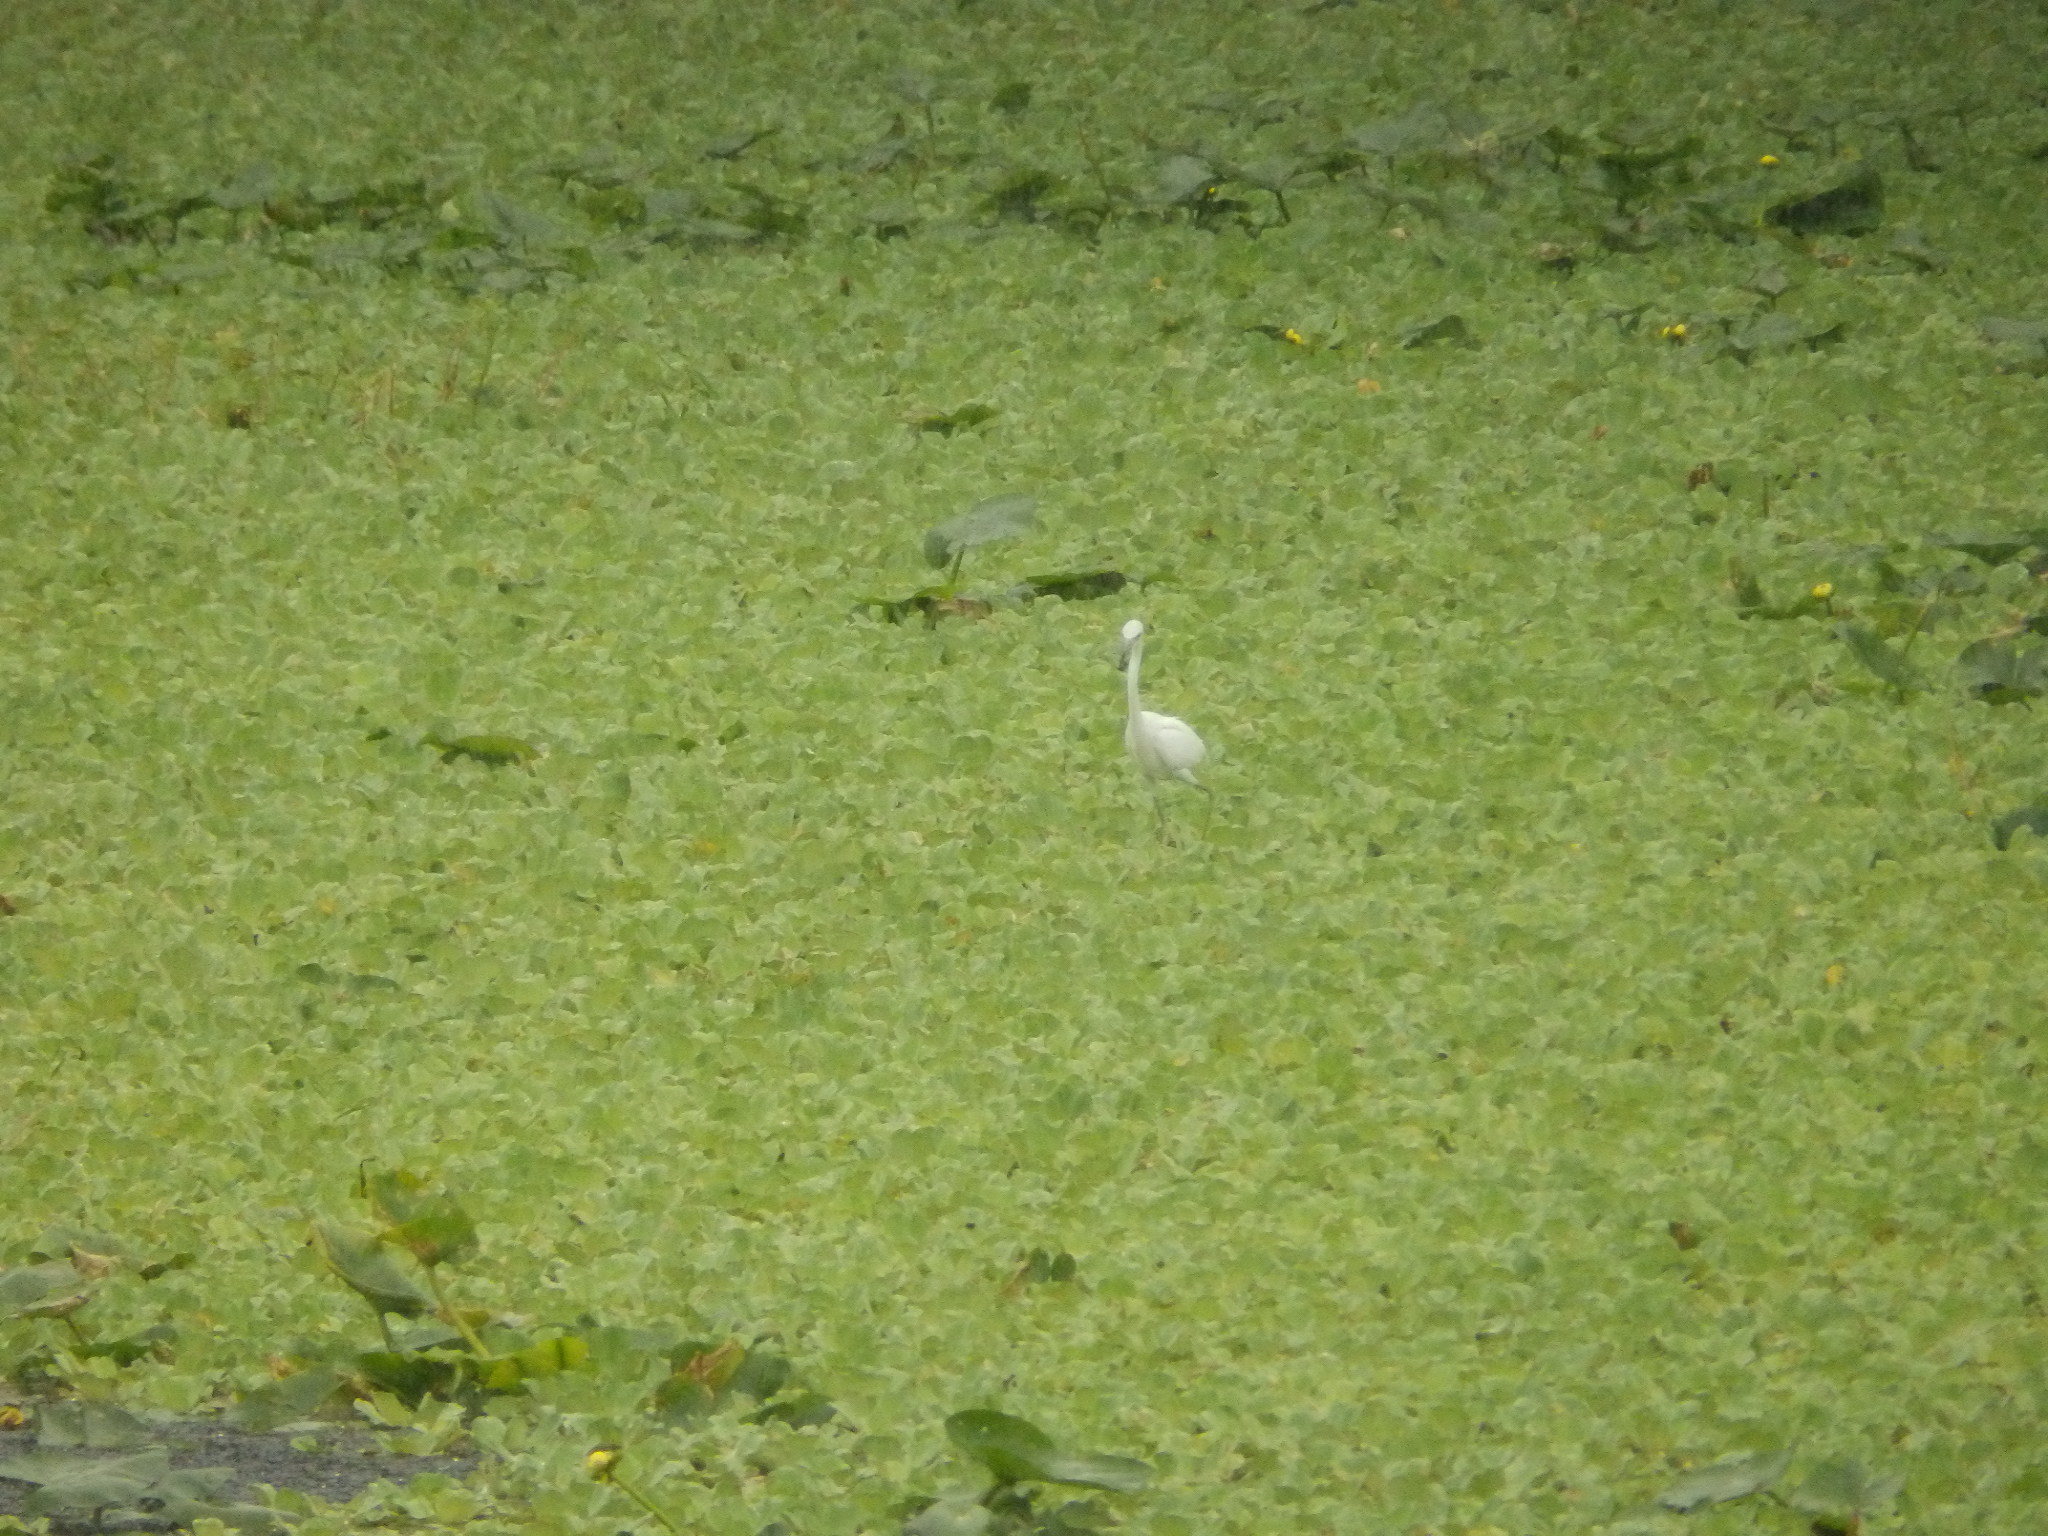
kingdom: Animalia
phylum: Chordata
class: Aves
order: Pelecaniformes
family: Ardeidae
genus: Egretta
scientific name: Egretta caerulea
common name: Little blue heron
